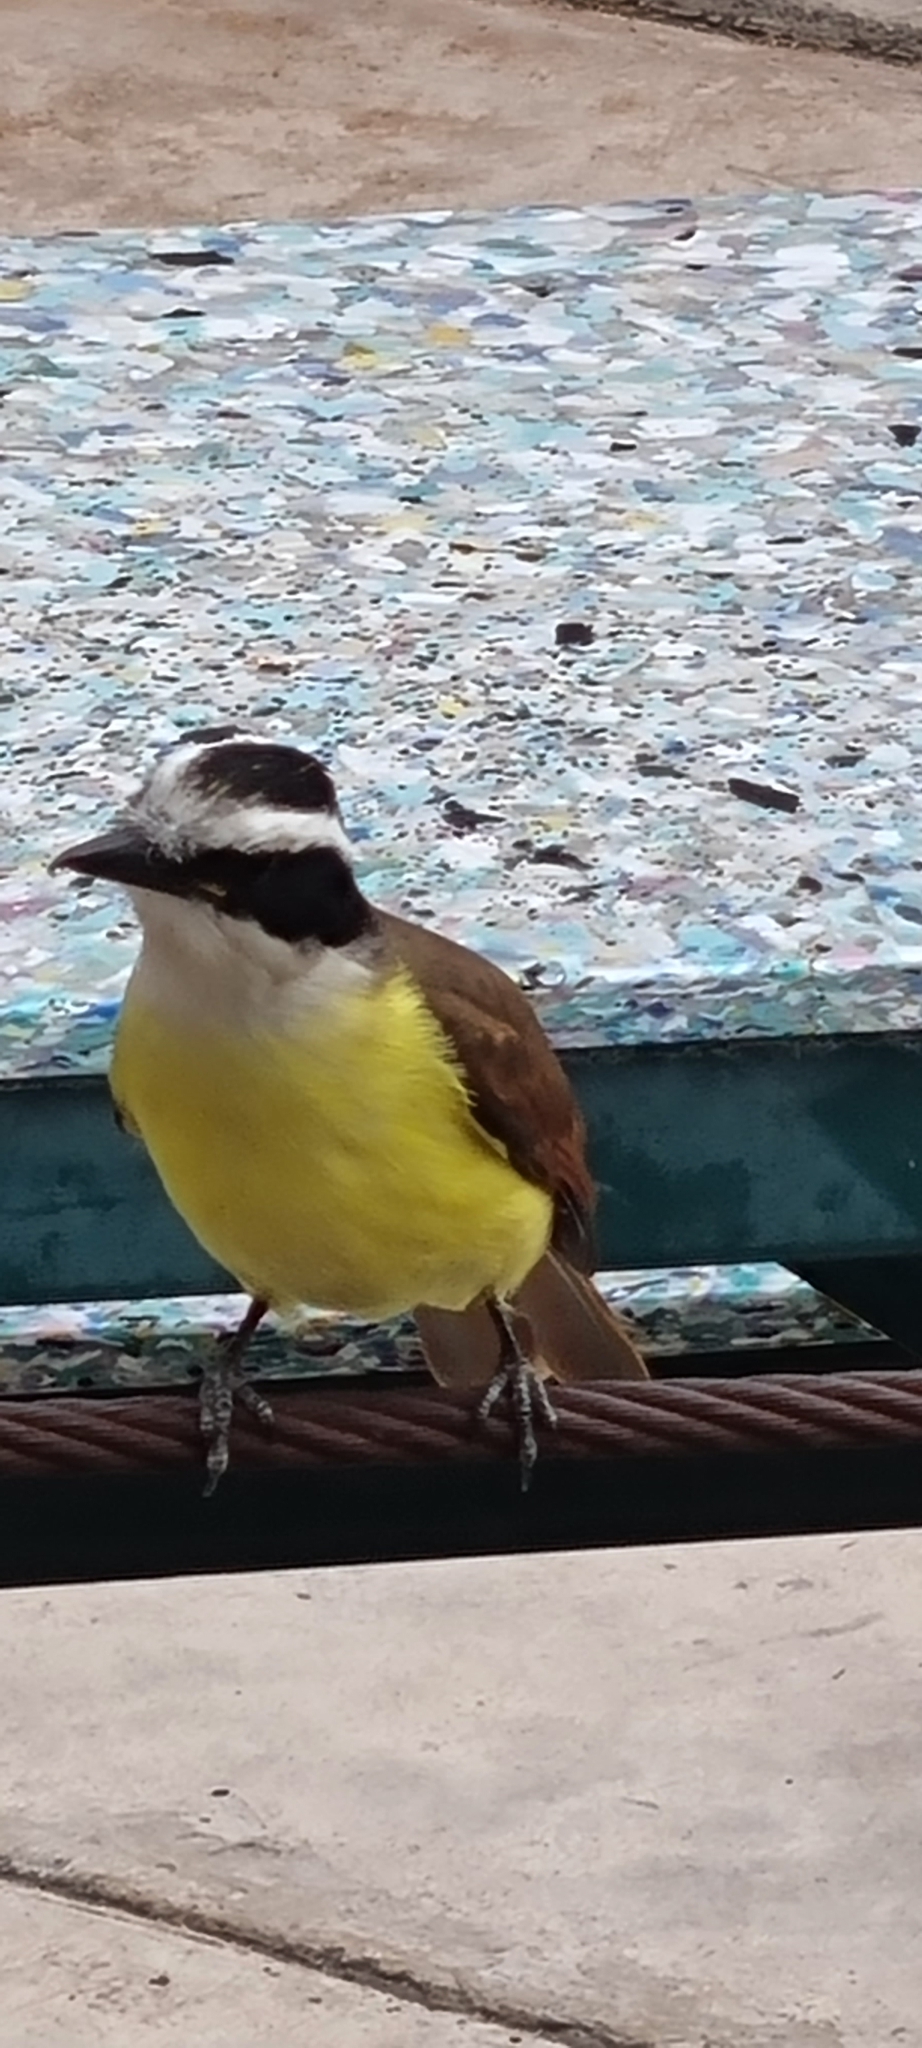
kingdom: Animalia
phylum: Chordata
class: Aves
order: Passeriformes
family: Tyrannidae
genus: Pitangus
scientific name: Pitangus sulphuratus
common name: Great kiskadee
